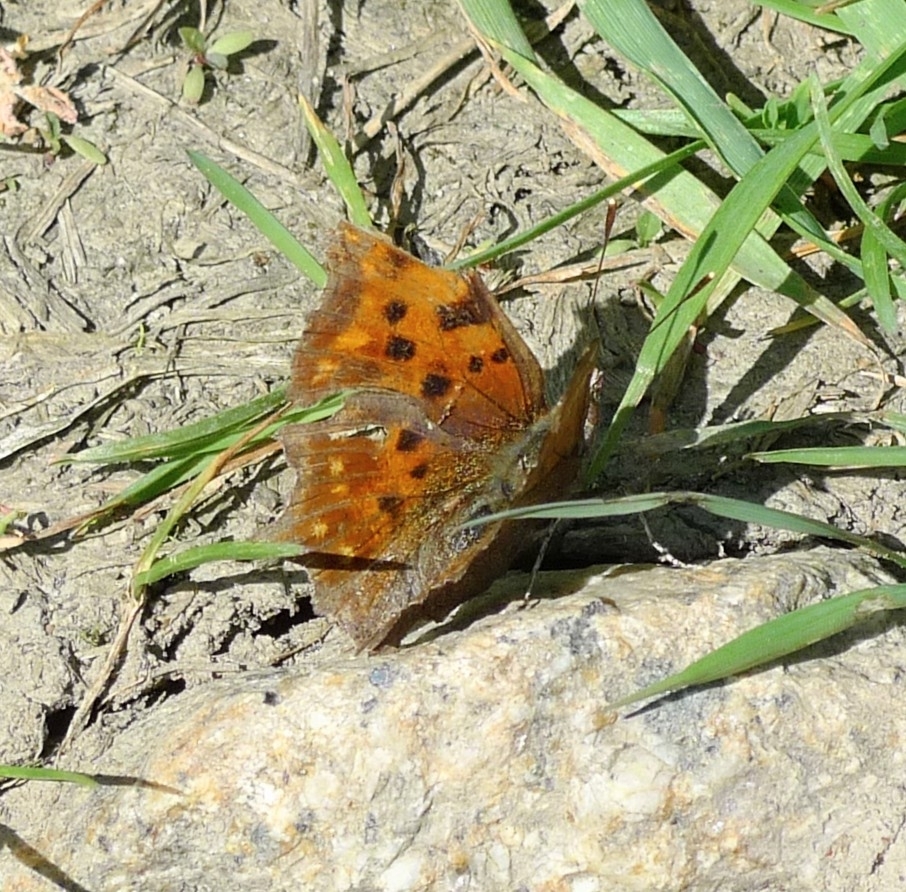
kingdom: Animalia
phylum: Arthropoda
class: Insecta
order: Lepidoptera
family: Nymphalidae
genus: Polygonia
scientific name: Polygonia c-album
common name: Comma
